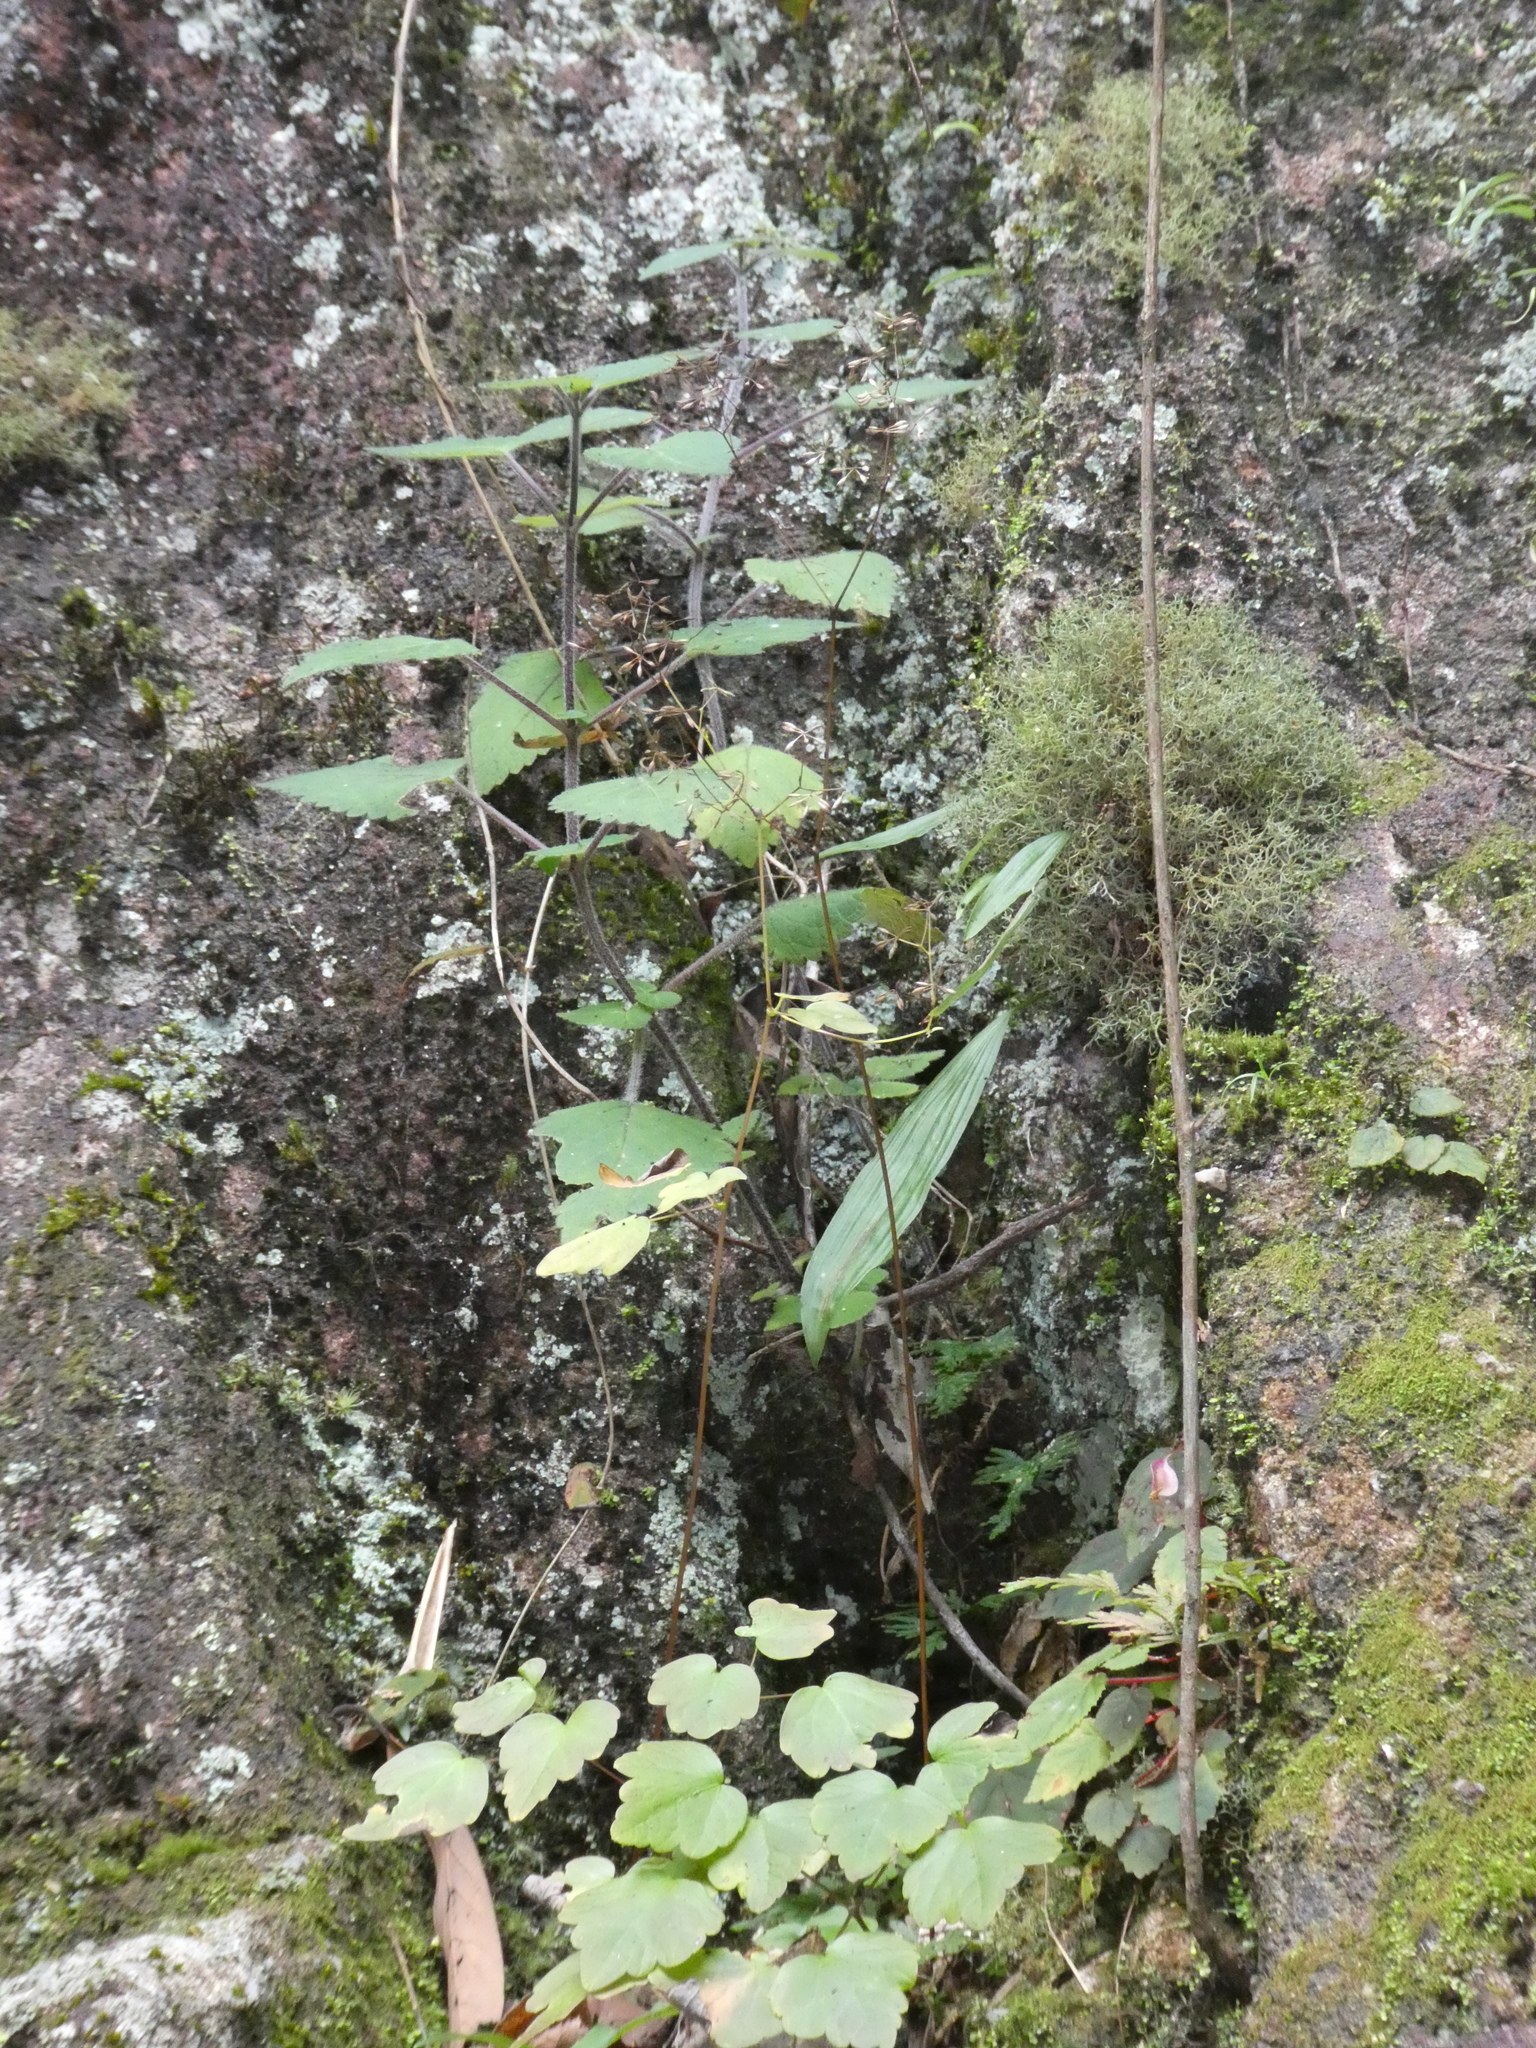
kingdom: Plantae
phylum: Tracheophyta
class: Magnoliopsida
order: Ranunculales
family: Ranunculaceae
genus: Thalictrum
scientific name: Thalictrum acutifolium
